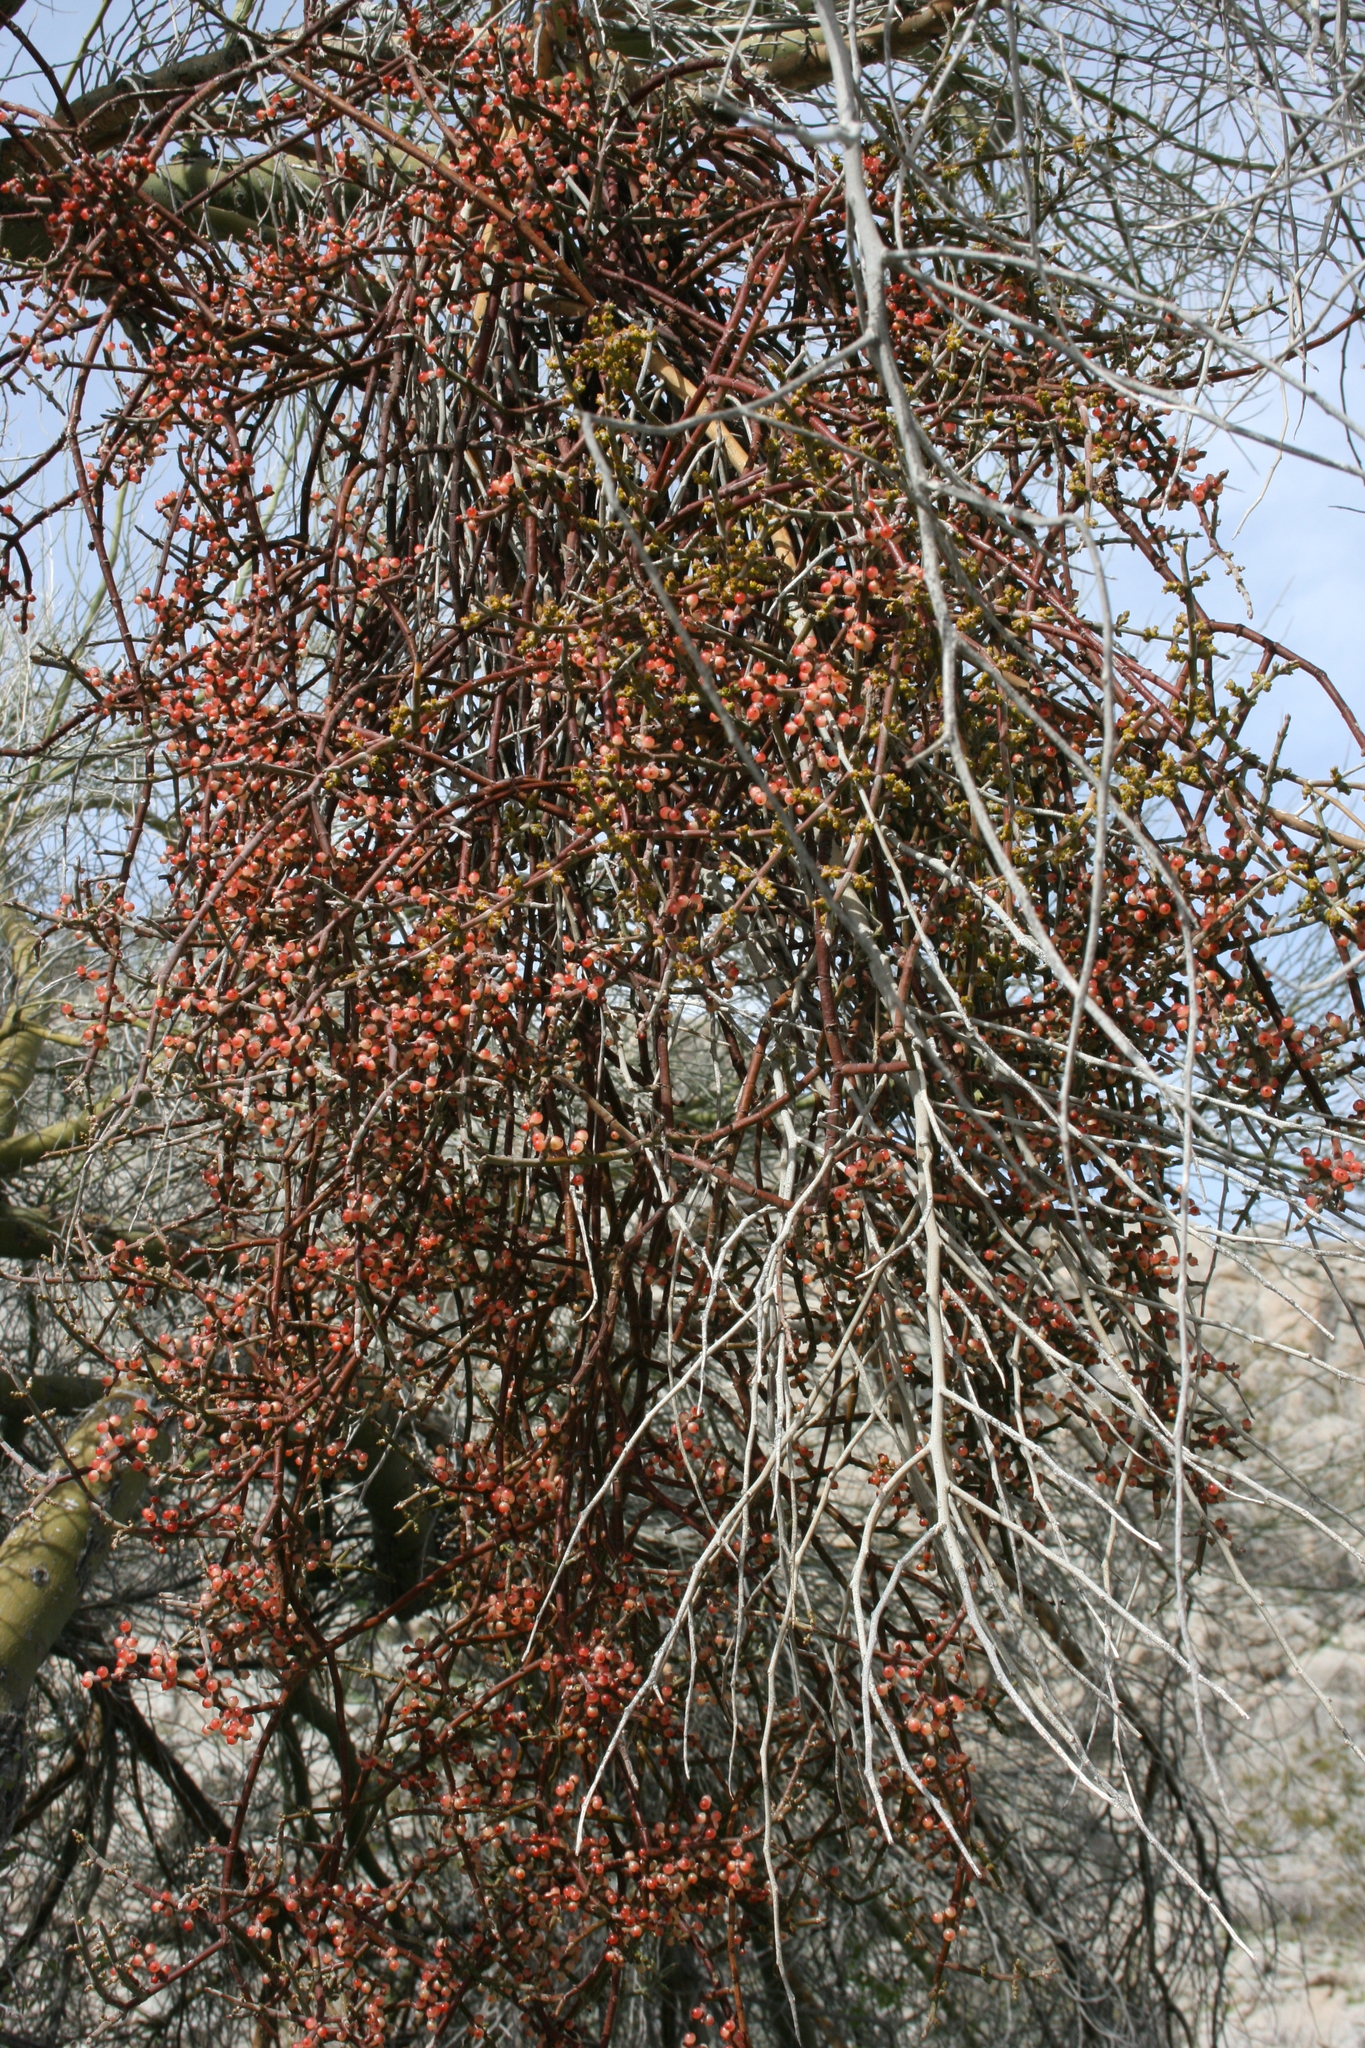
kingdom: Plantae
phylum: Tracheophyta
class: Magnoliopsida
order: Santalales
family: Viscaceae
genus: Phoradendron
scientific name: Phoradendron californicum
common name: Acacia mistletoe
